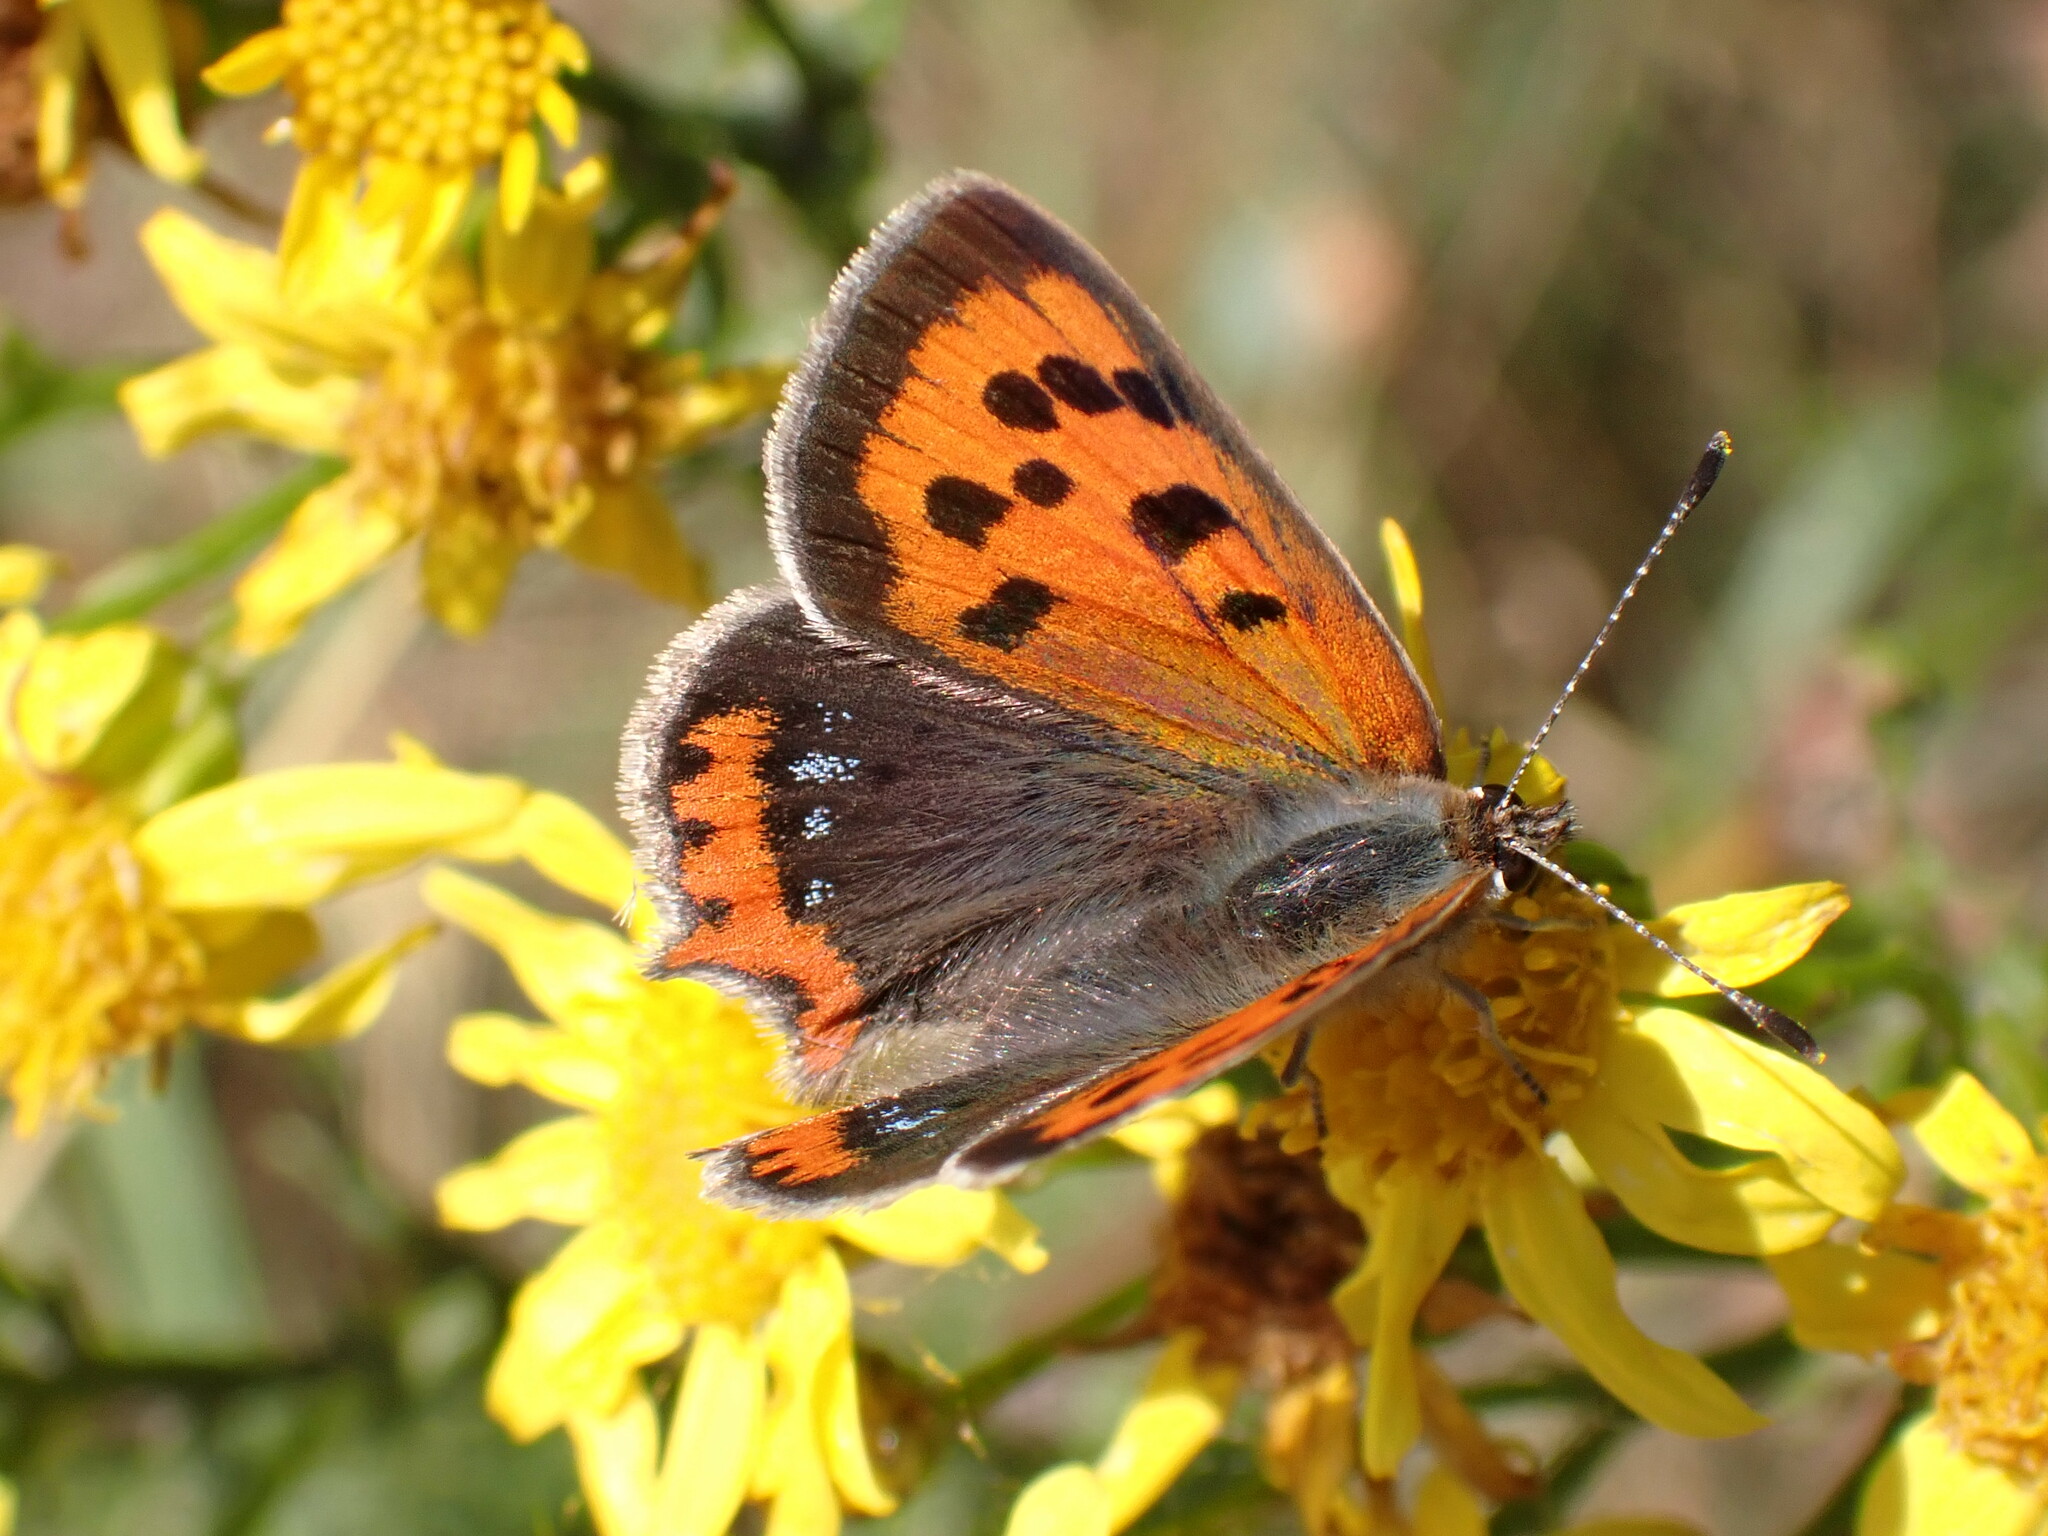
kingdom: Animalia
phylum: Arthropoda
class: Insecta
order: Lepidoptera
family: Lycaenidae
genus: Lycaena
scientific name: Lycaena phlaeas
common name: Small copper
